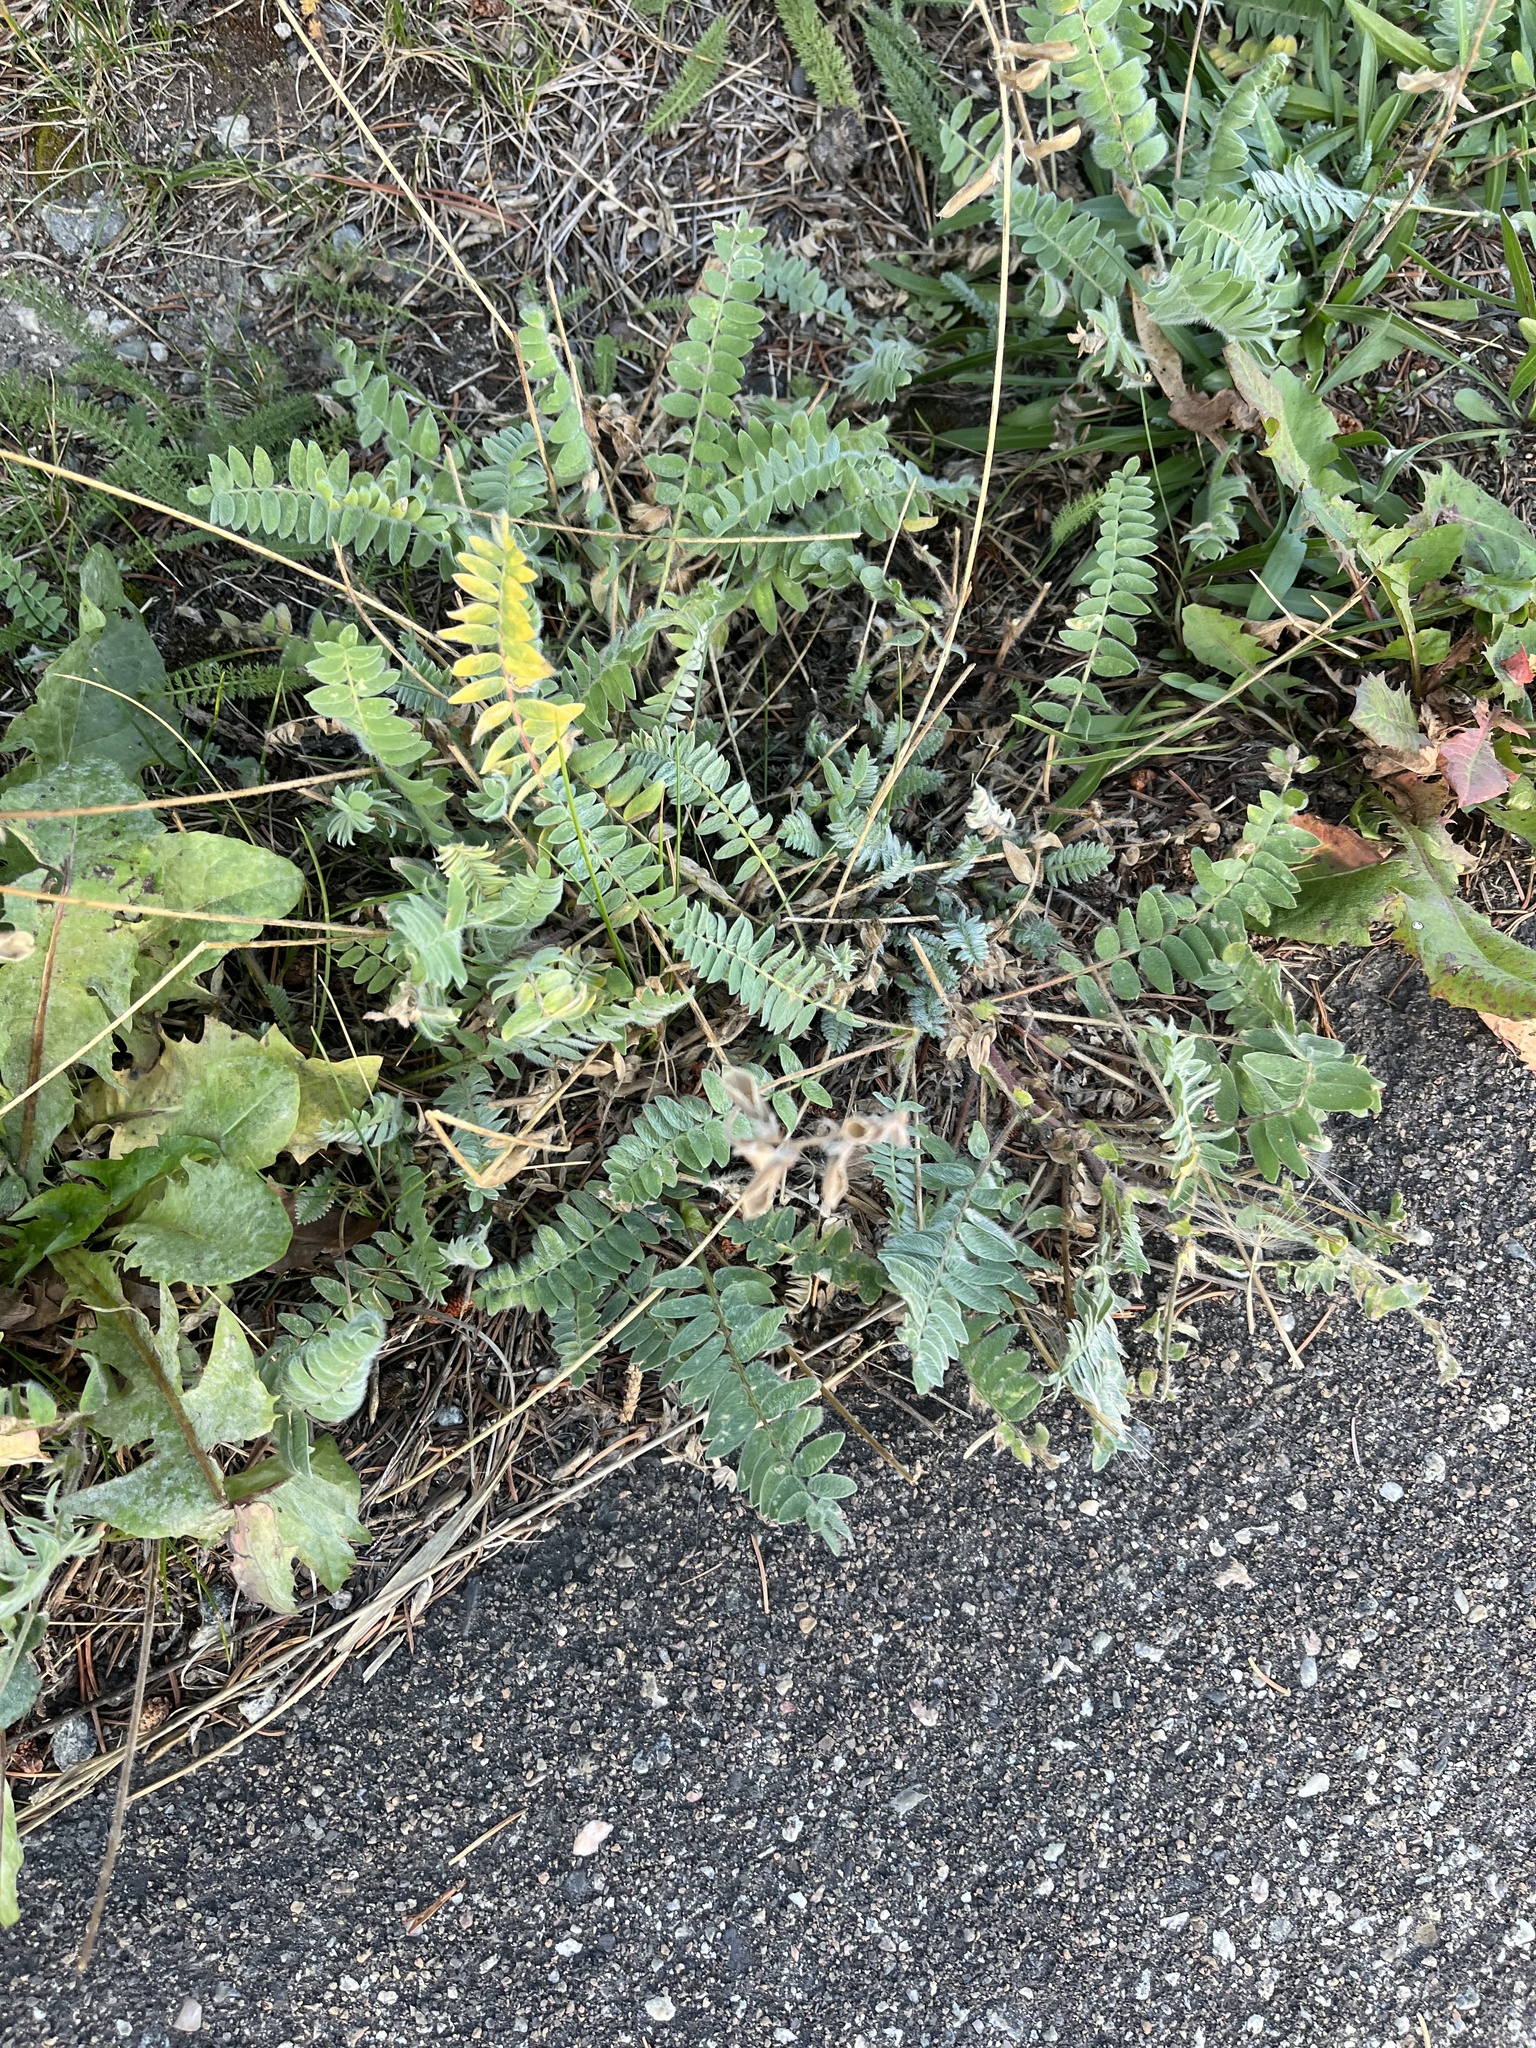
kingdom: Plantae
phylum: Tracheophyta
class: Magnoliopsida
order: Fabales
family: Fabaceae
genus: Oxytropis
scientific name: Oxytropis deflexa
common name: Stemmed oxytrope
